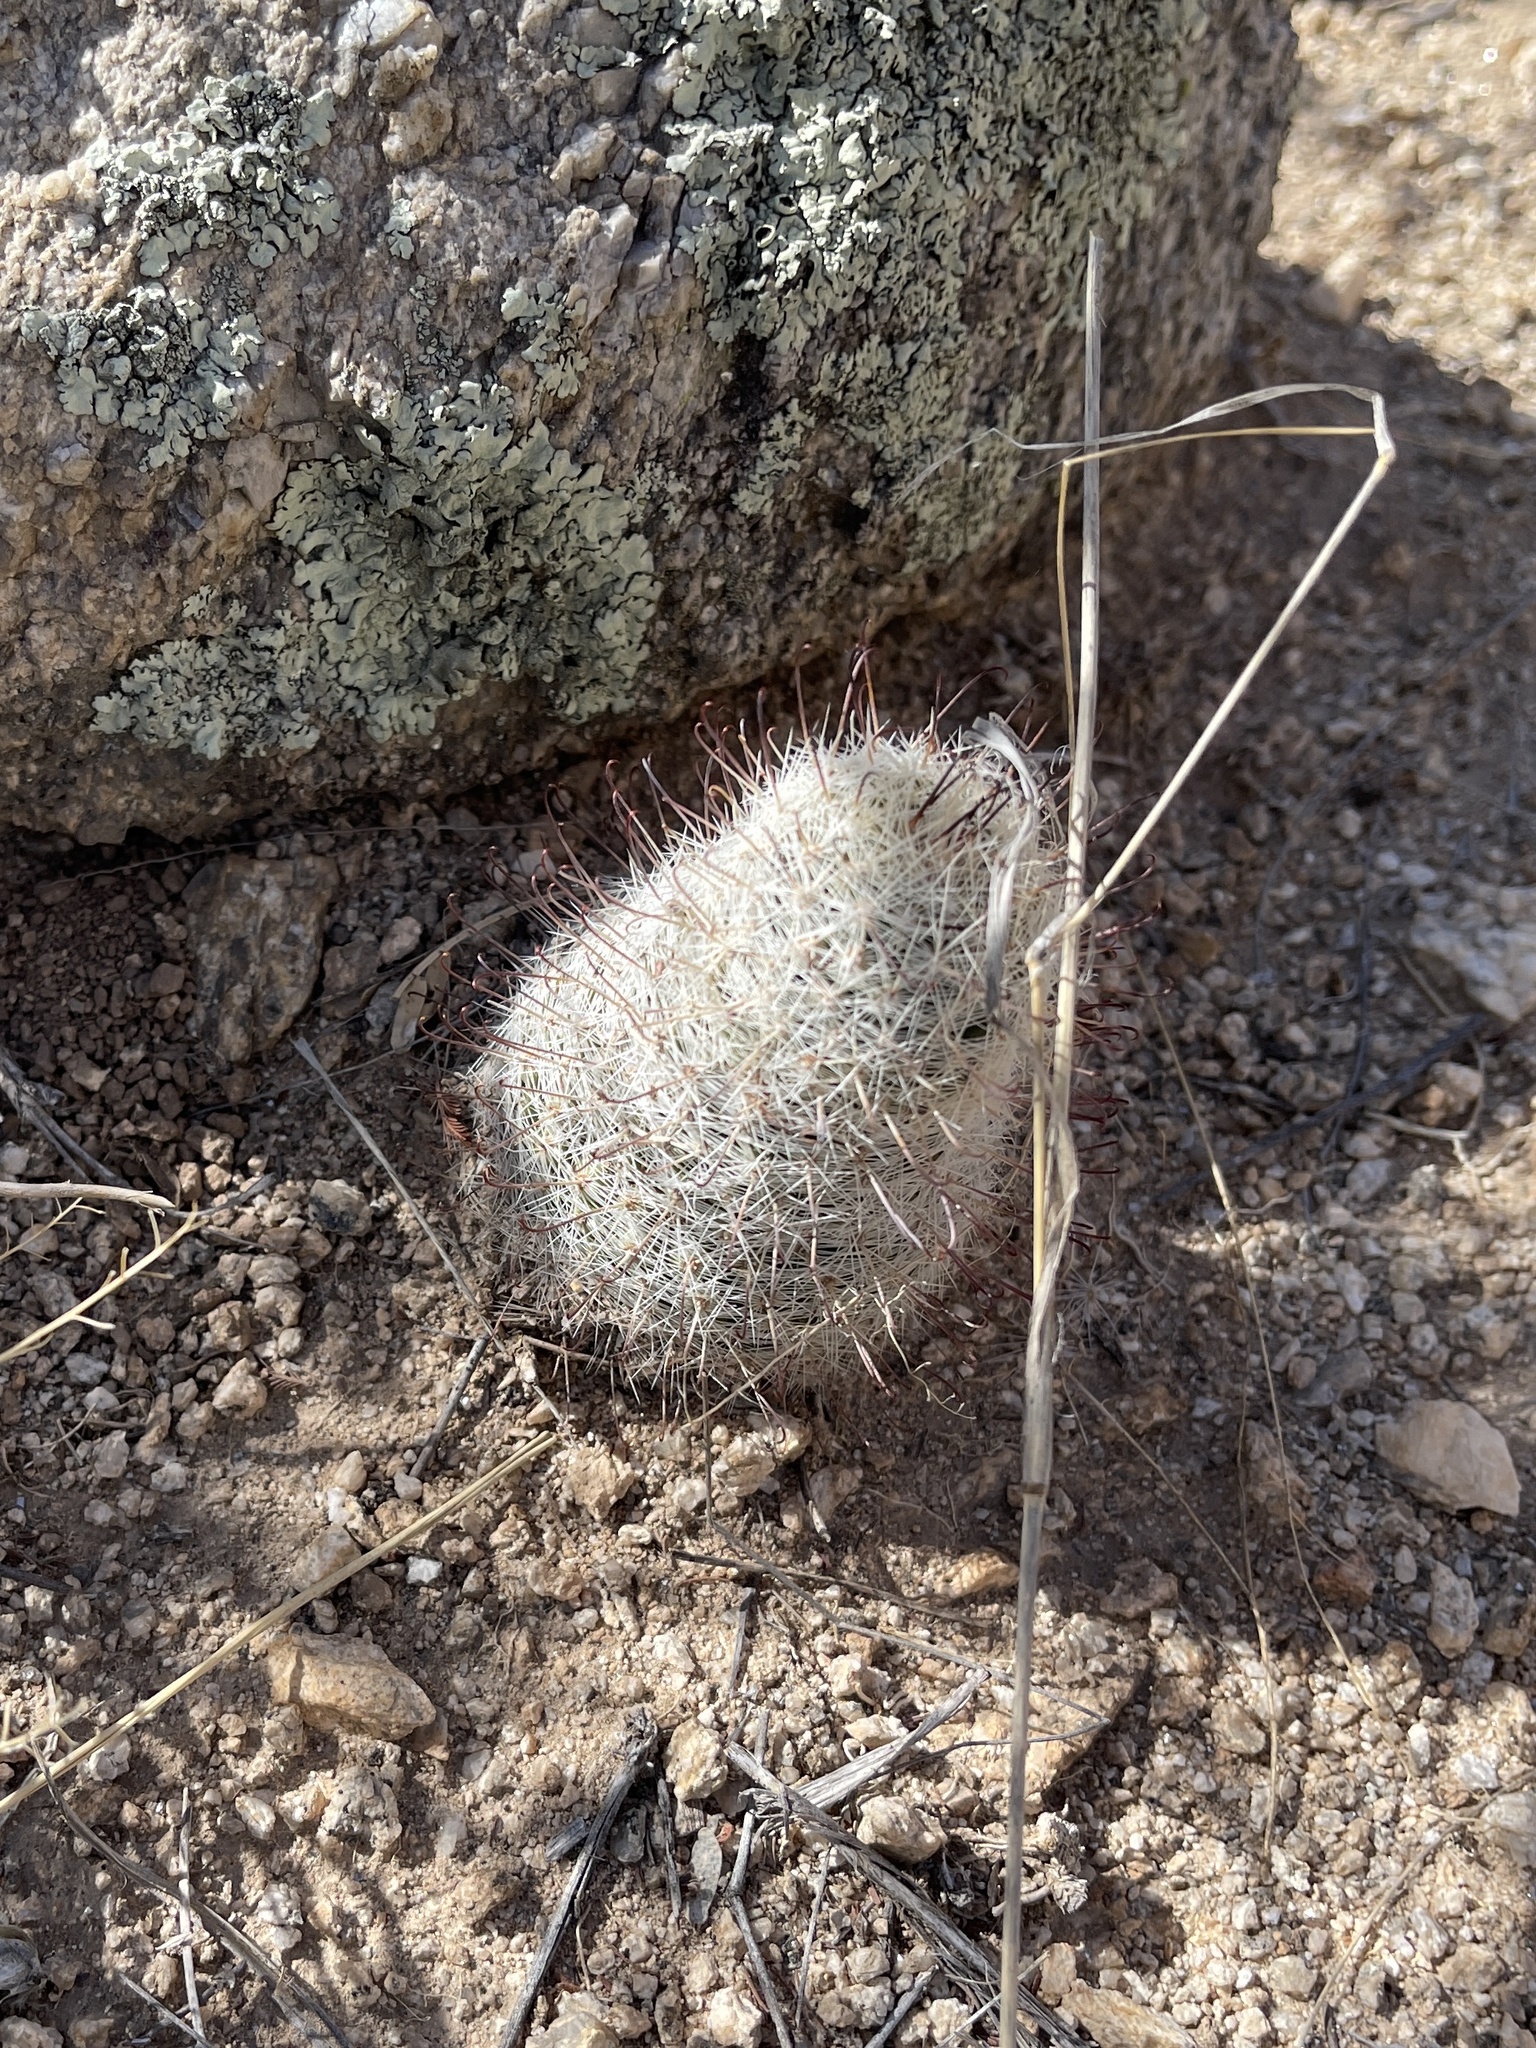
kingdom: Plantae
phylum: Tracheophyta
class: Magnoliopsida
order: Caryophyllales
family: Cactaceae
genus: Cochemiea
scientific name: Cochemiea grahamii
